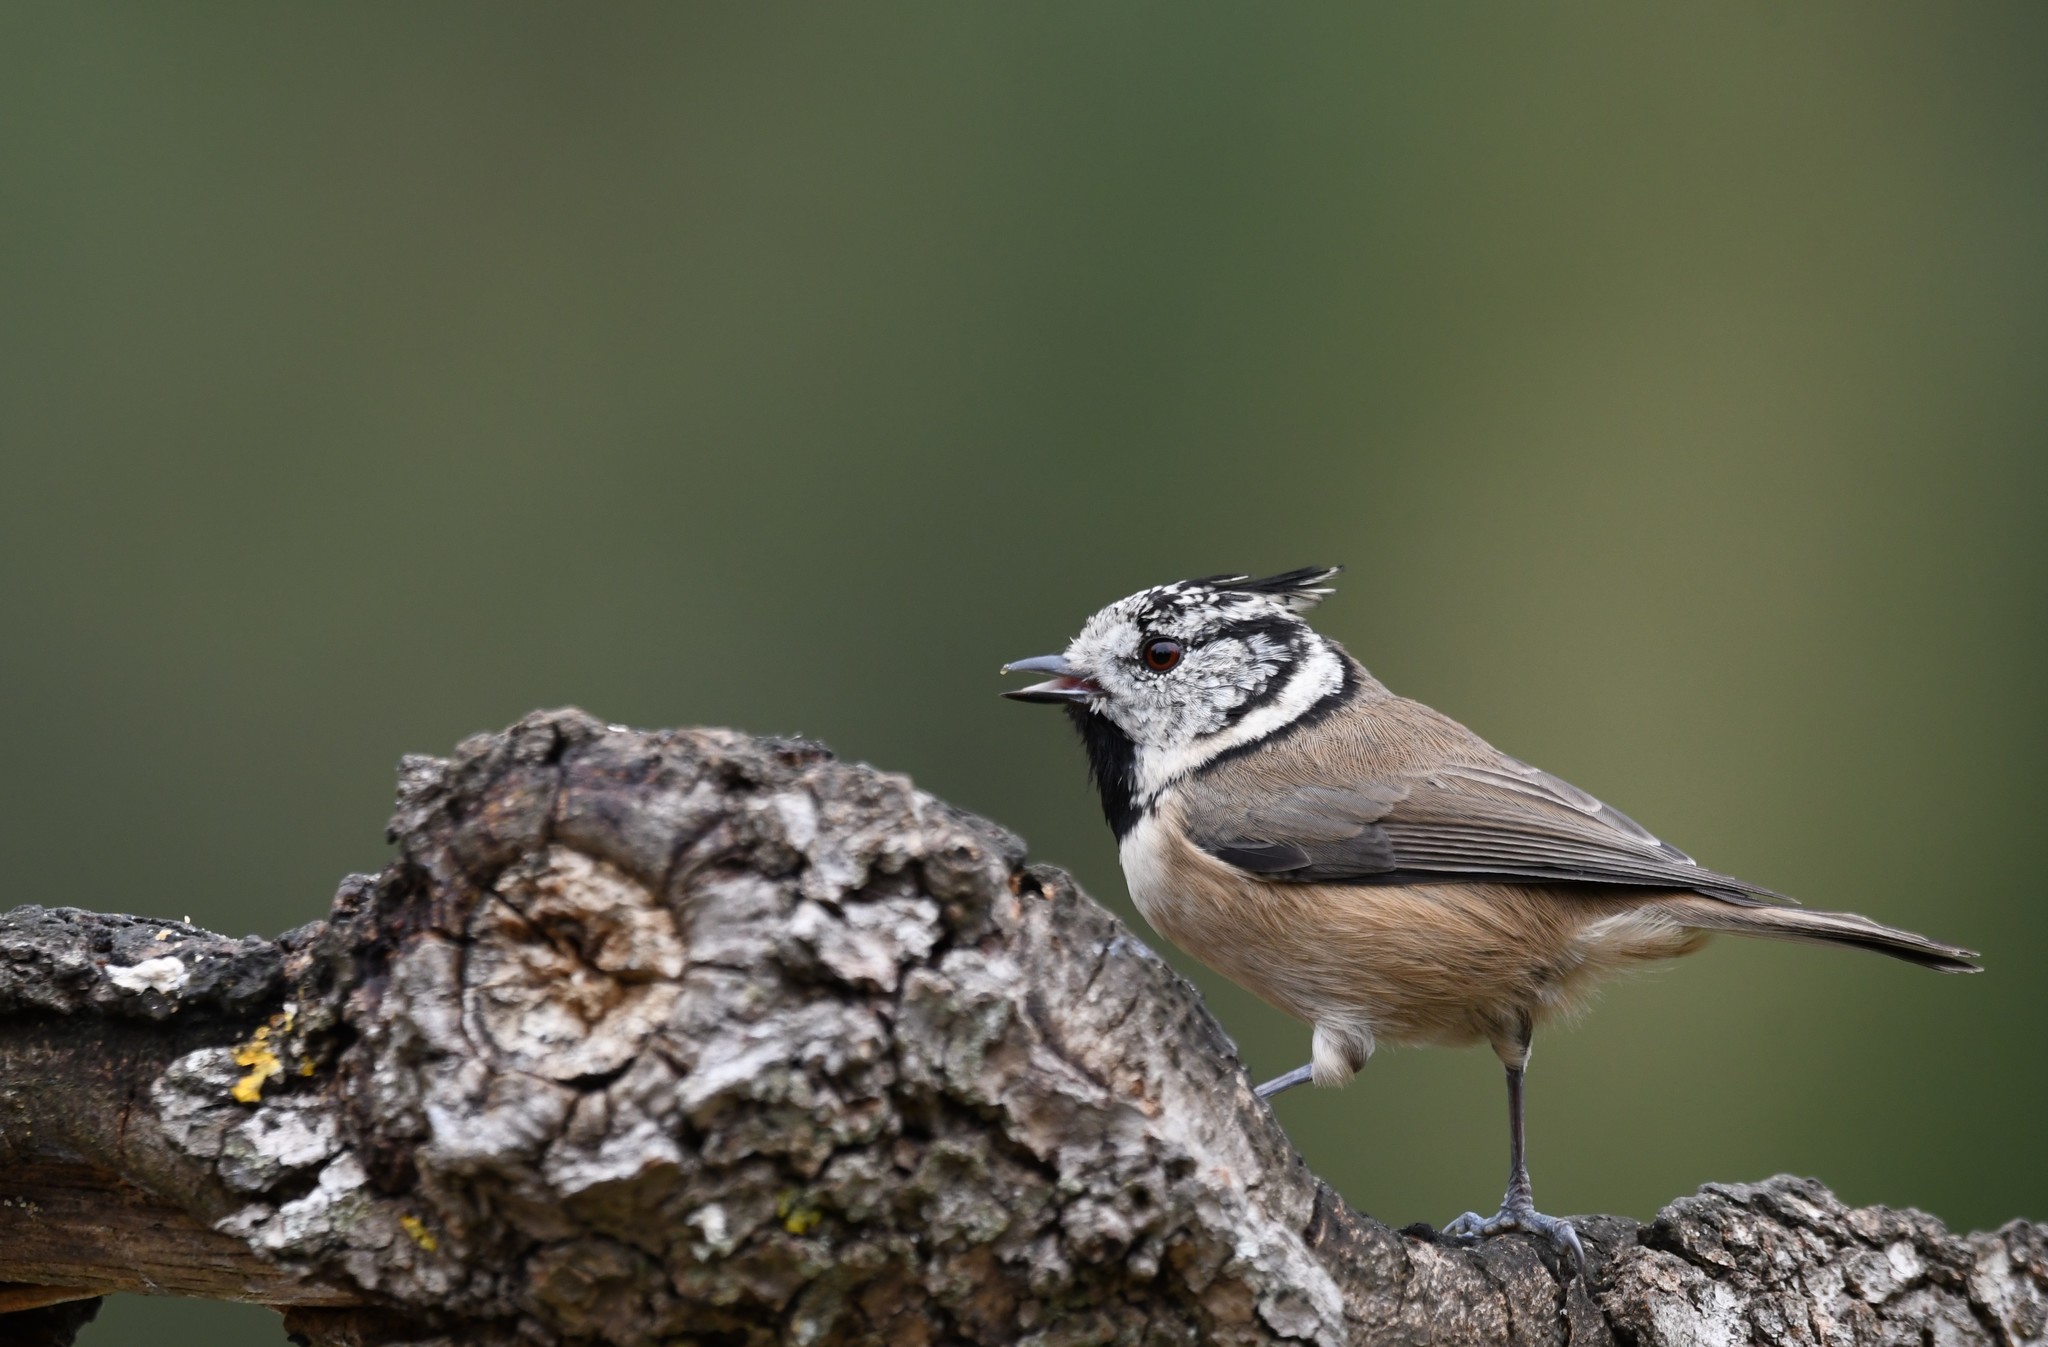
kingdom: Animalia
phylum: Chordata
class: Aves
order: Passeriformes
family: Paridae
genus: Lophophanes
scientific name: Lophophanes cristatus
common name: European crested tit
